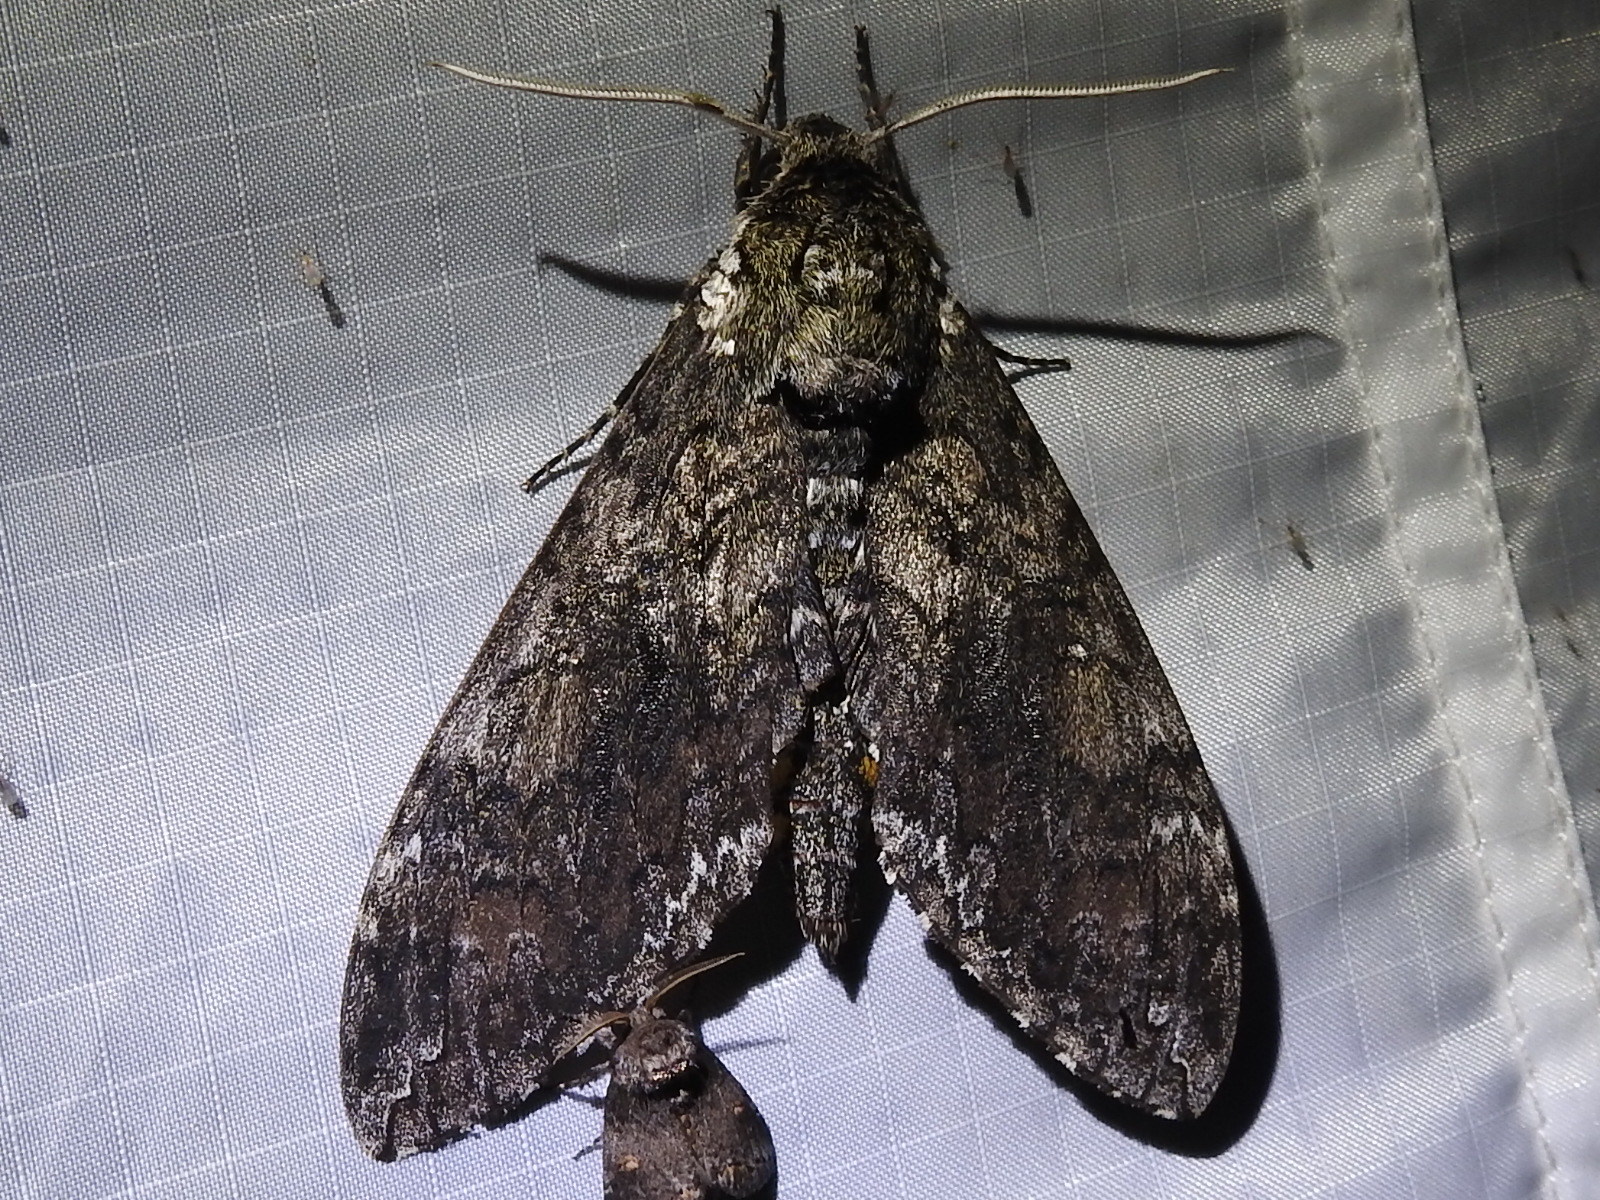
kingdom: Animalia
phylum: Arthropoda
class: Insecta
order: Lepidoptera
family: Sphingidae
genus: Manduca
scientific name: Manduca sexta
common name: Carolina sphinx
